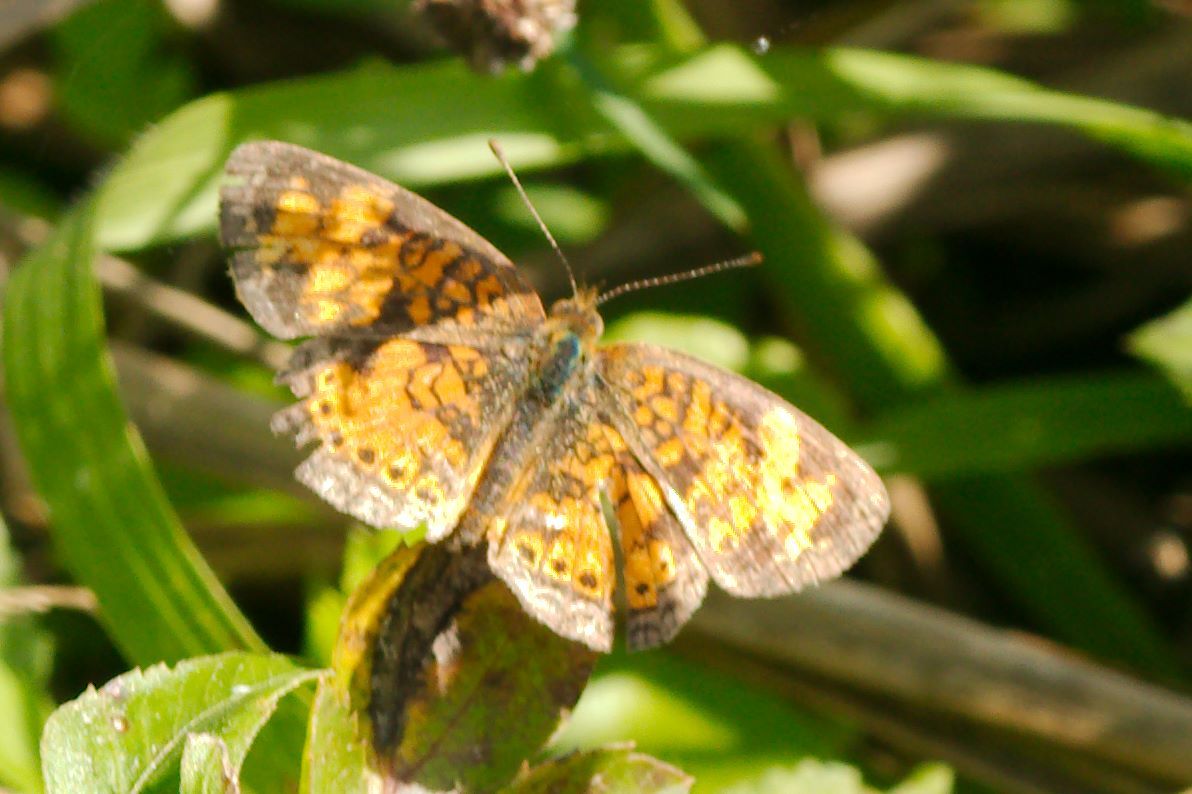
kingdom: Animalia
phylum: Arthropoda
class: Insecta
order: Lepidoptera
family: Nymphalidae
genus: Phyciodes
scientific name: Phyciodes tharos
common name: Pearl crescent
